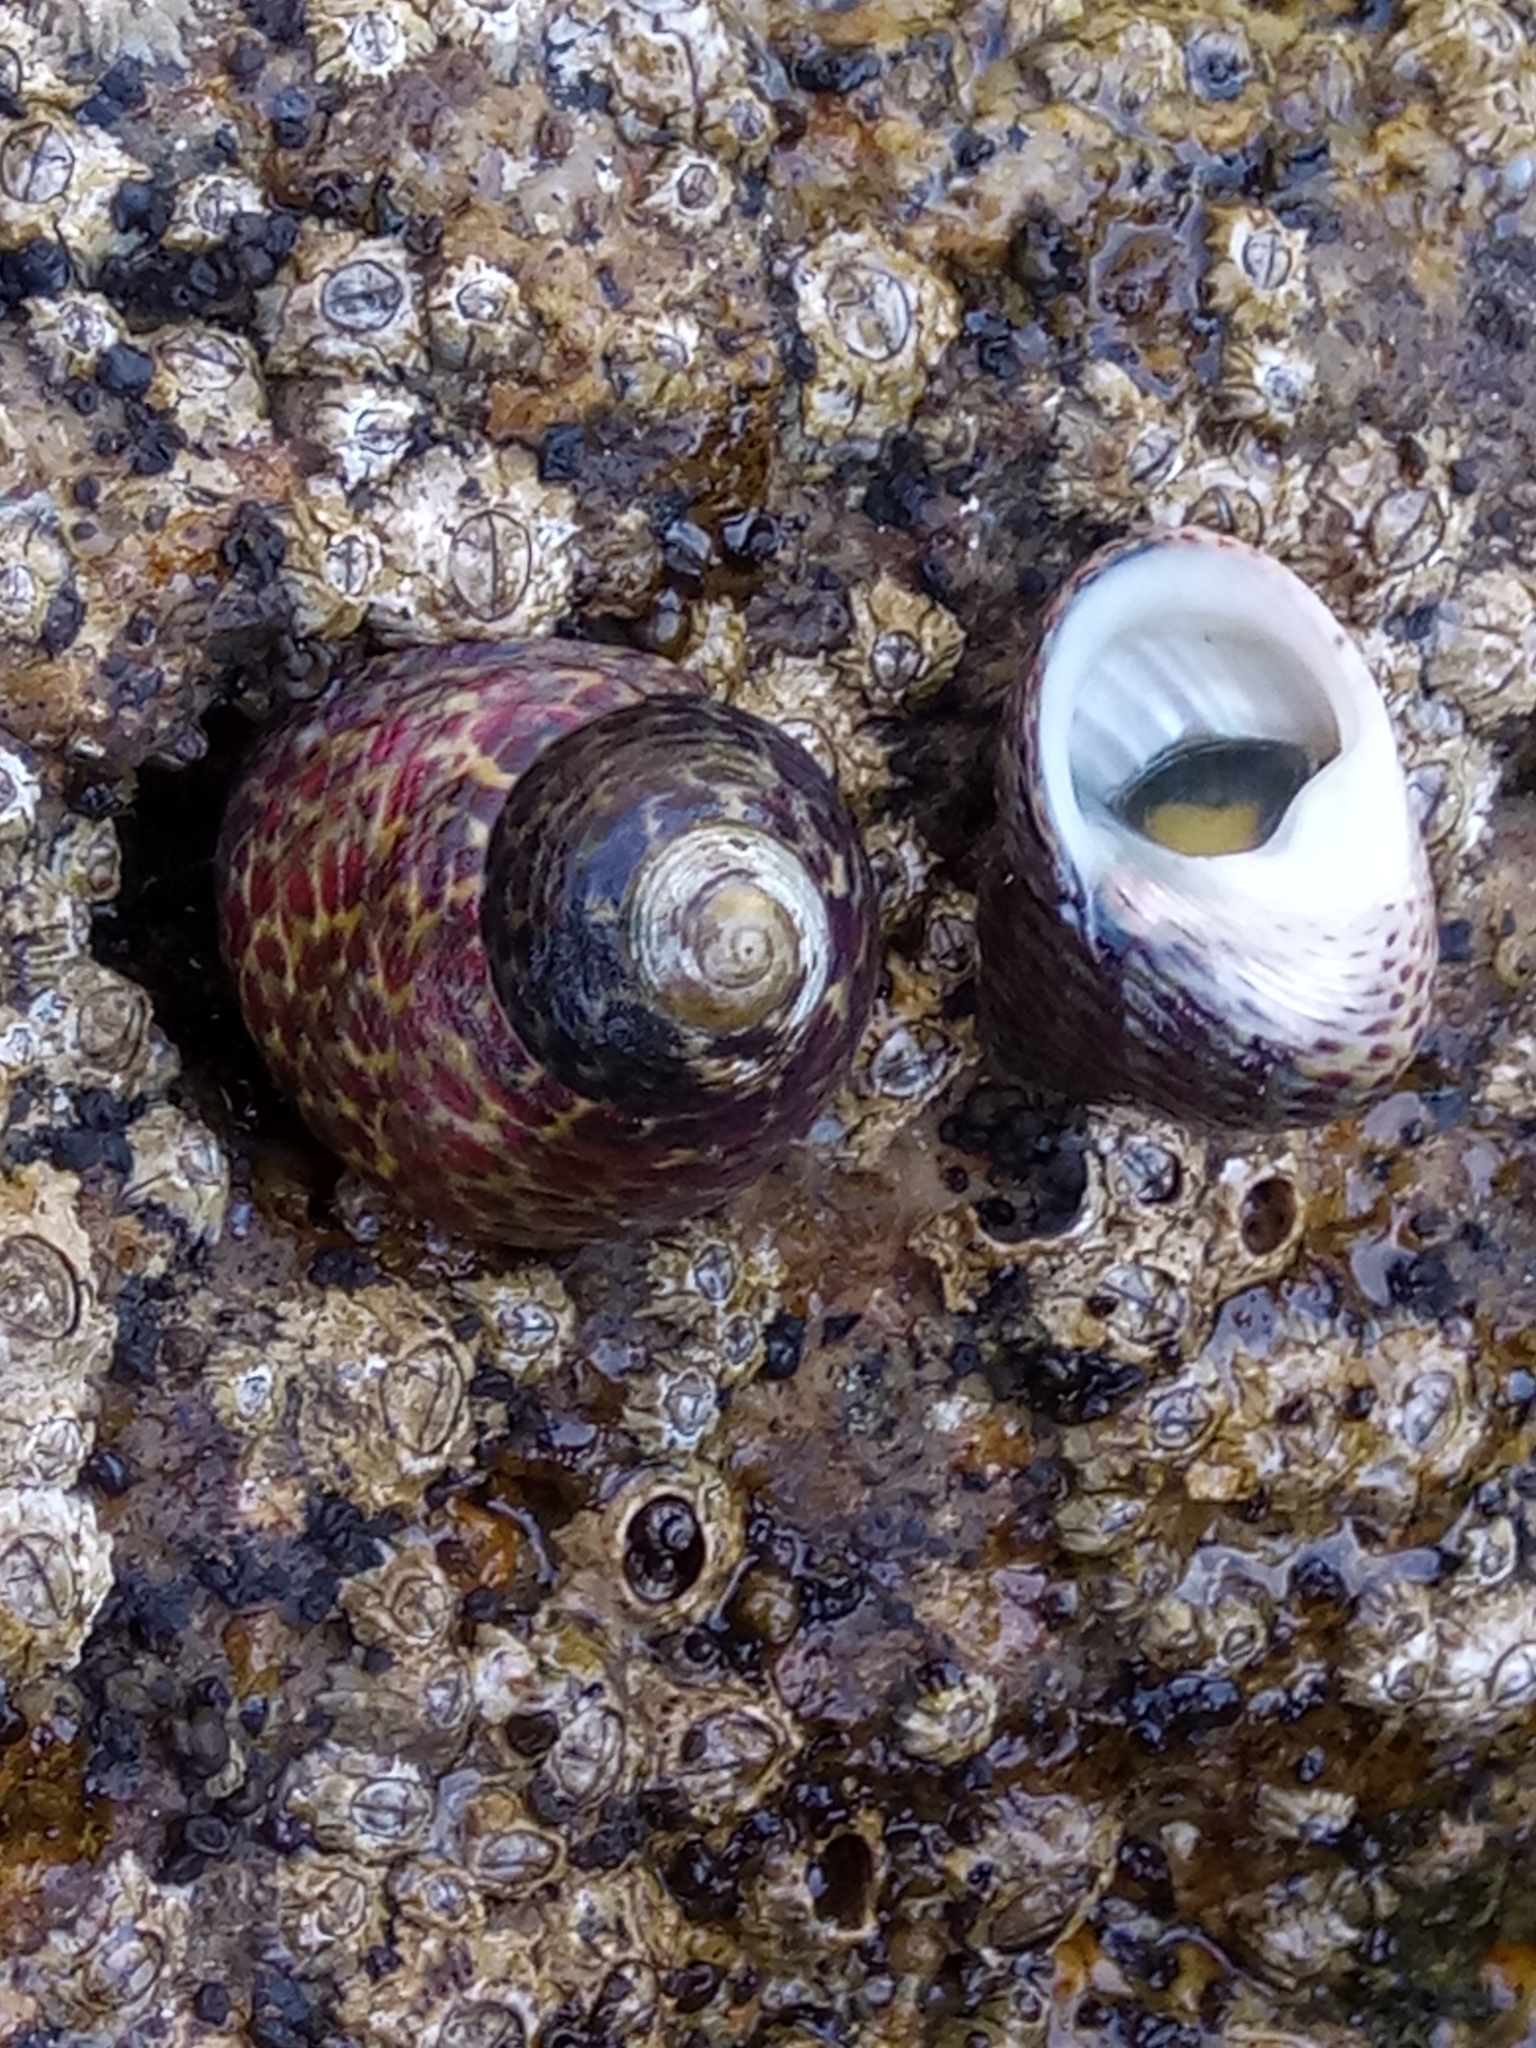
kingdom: Animalia
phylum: Mollusca
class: Gastropoda
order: Trochida
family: Trochidae
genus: Phorcus
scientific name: Phorcus turbinatus
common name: Turbinate monodont
